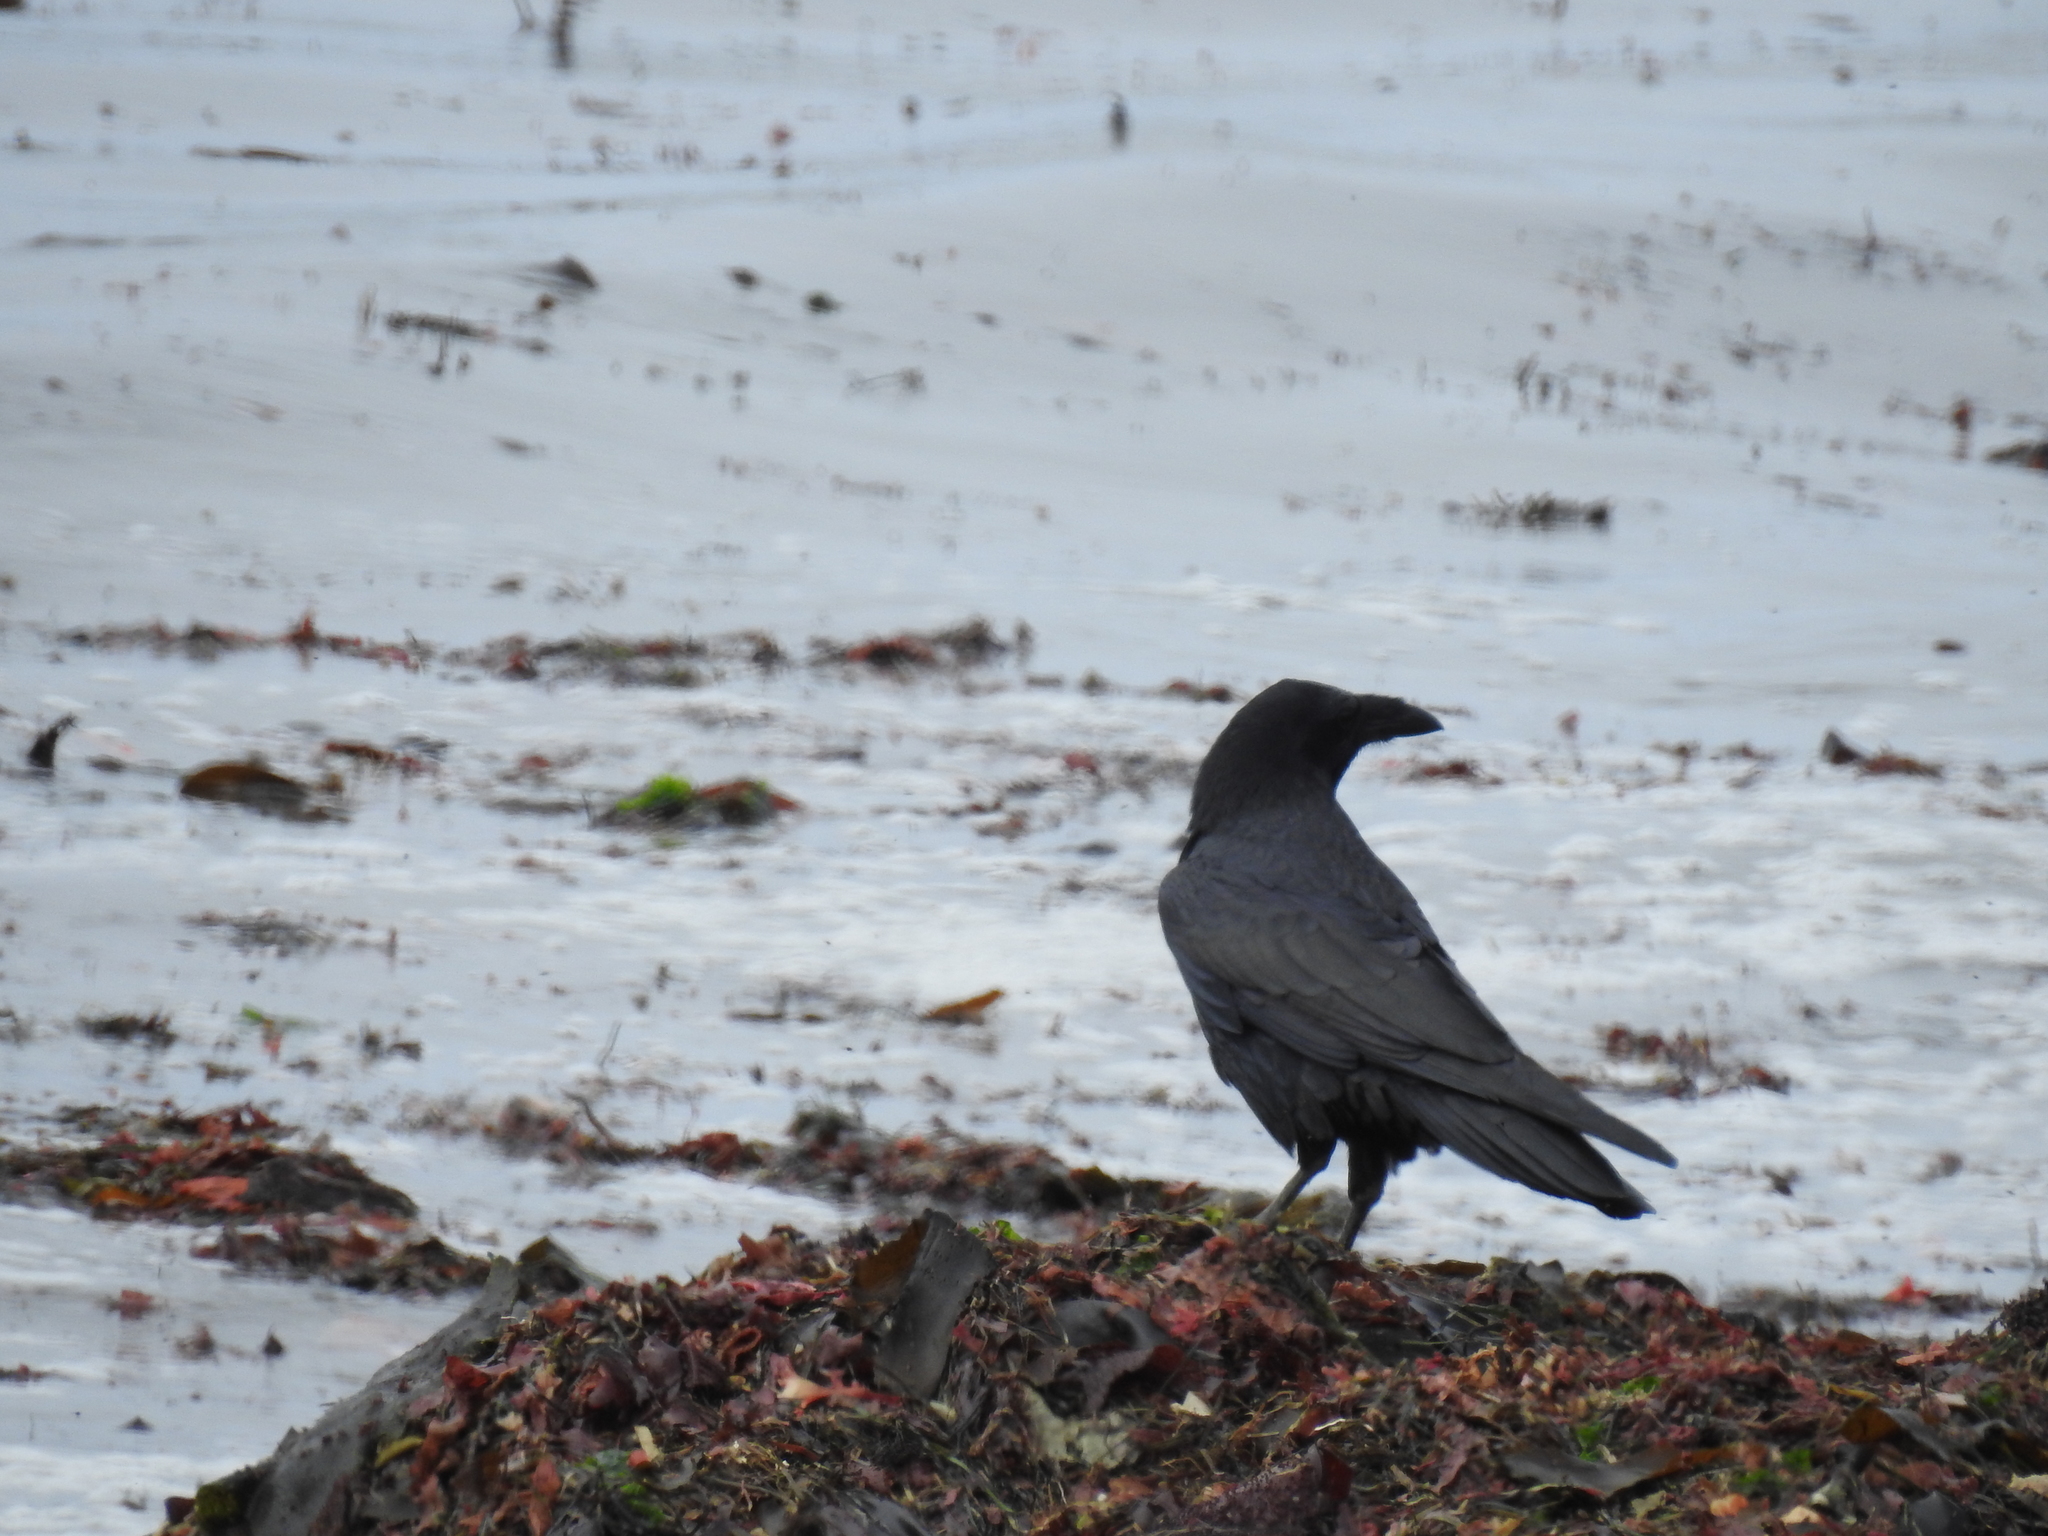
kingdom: Animalia
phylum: Chordata
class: Aves
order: Passeriformes
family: Corvidae
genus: Corvus
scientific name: Corvus corax
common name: Common raven
